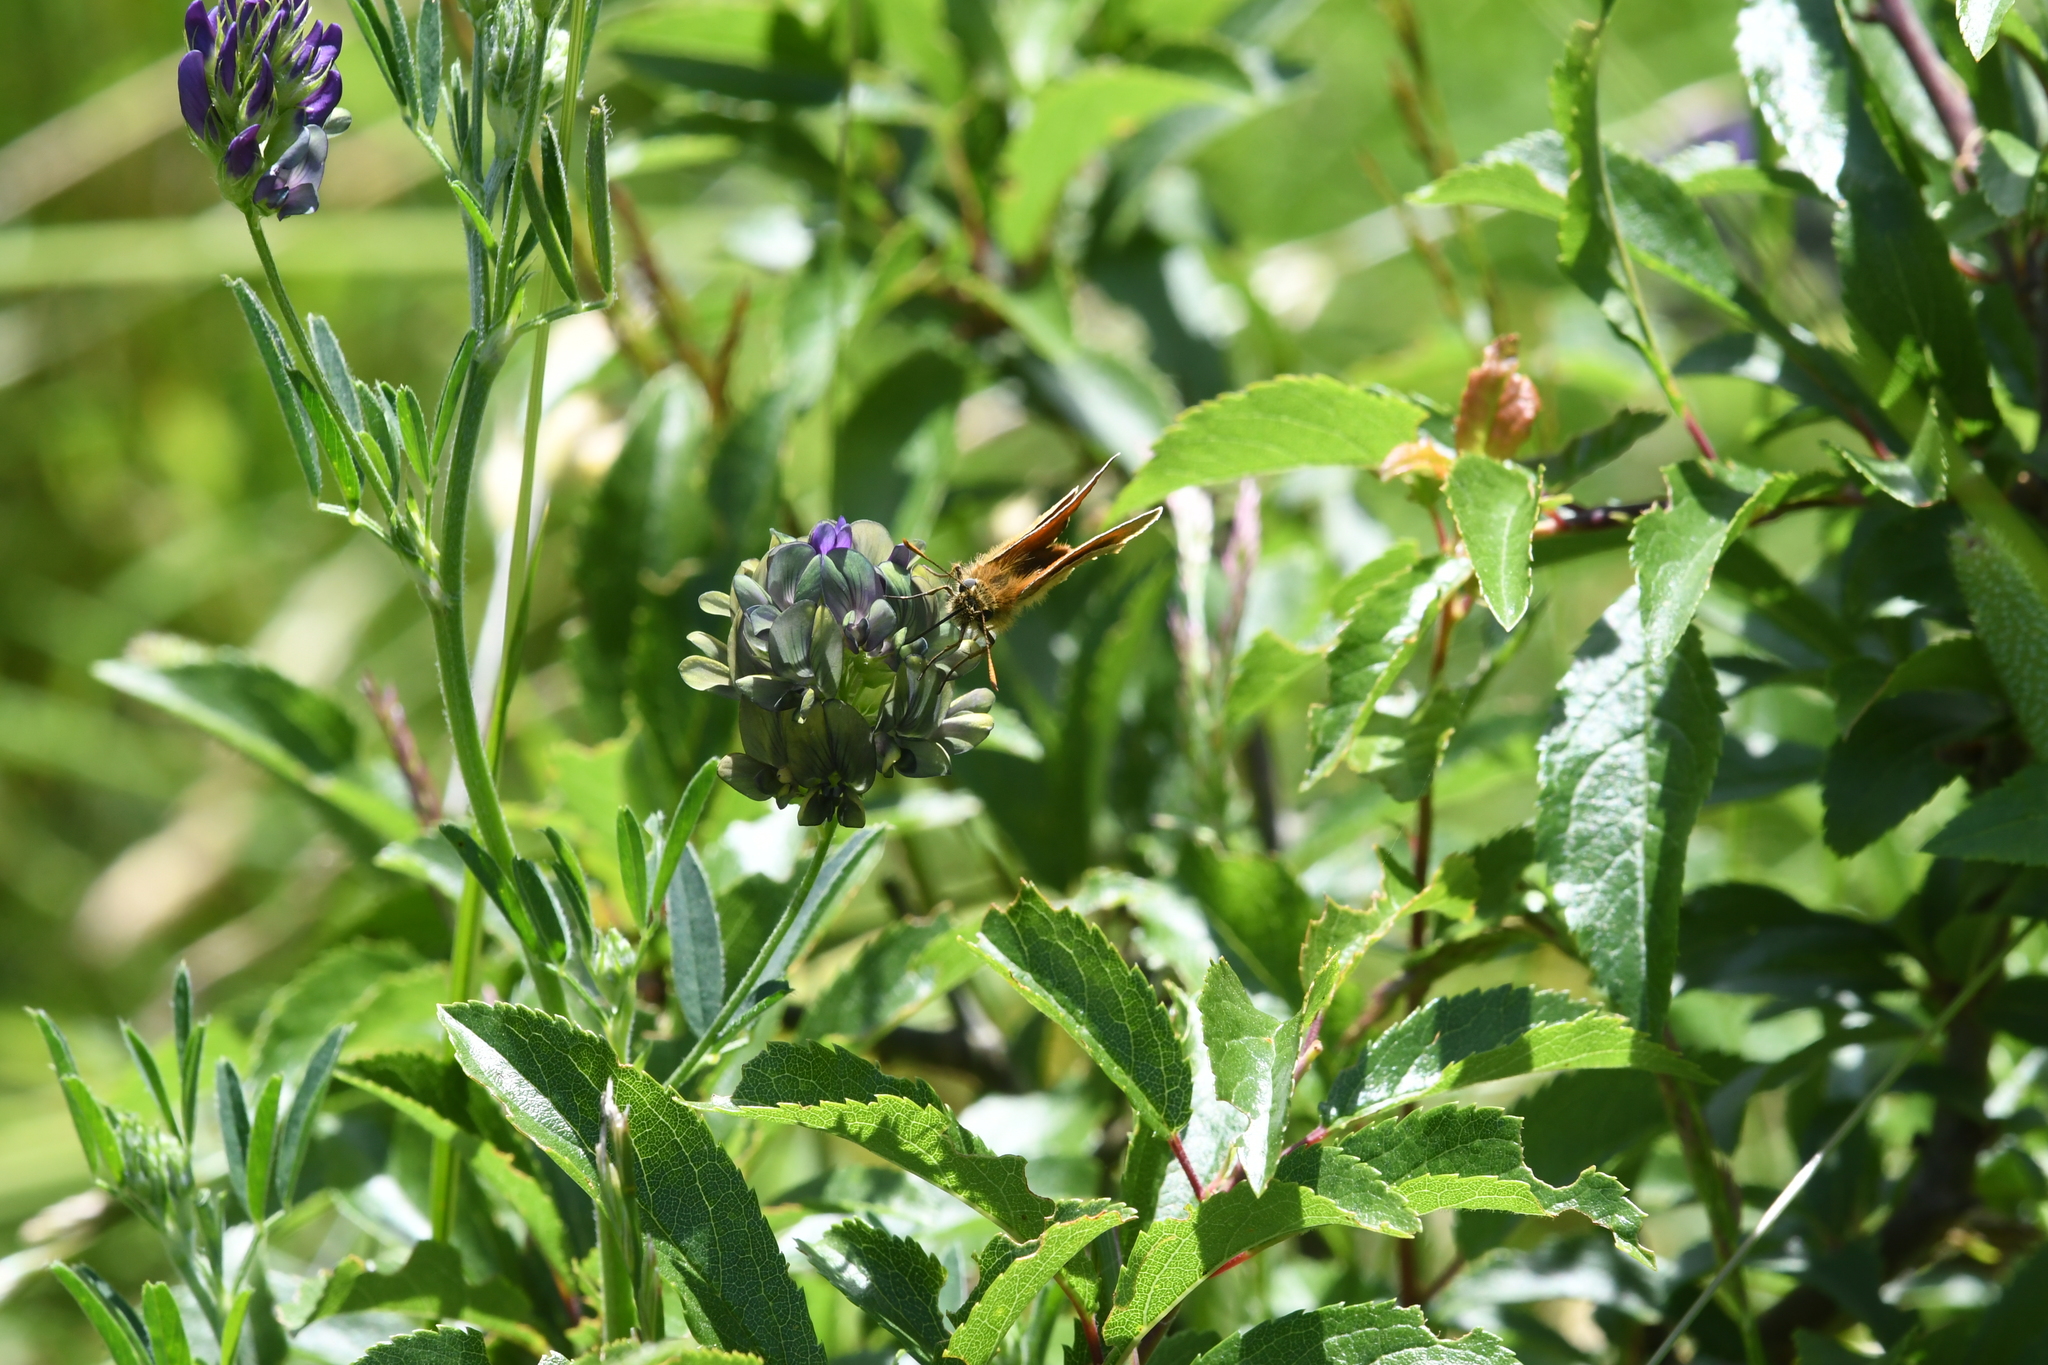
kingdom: Animalia
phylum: Arthropoda
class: Insecta
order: Lepidoptera
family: Hesperiidae
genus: Thymelicus
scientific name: Thymelicus sylvestris
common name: Small skipper
